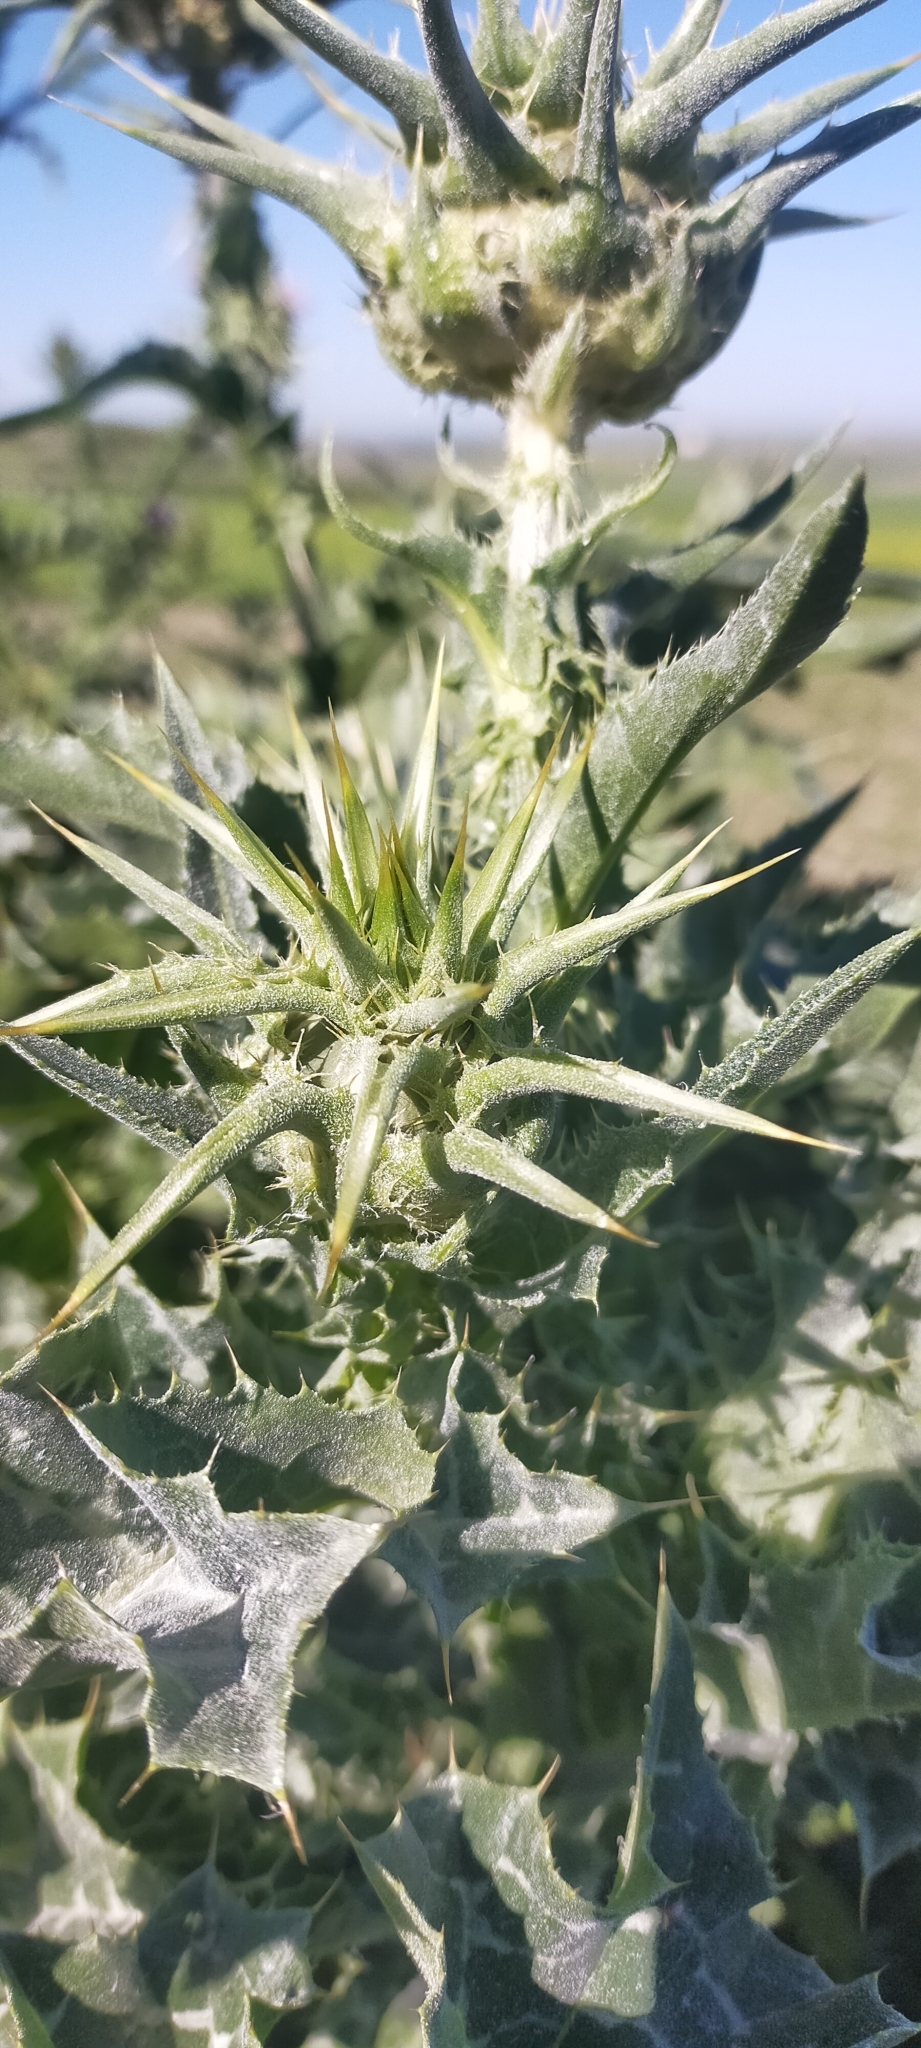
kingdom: Plantae
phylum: Tracheophyta
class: Magnoliopsida
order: Asterales
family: Asteraceae
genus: Silybum
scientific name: Silybum marianum
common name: Milk thistle
